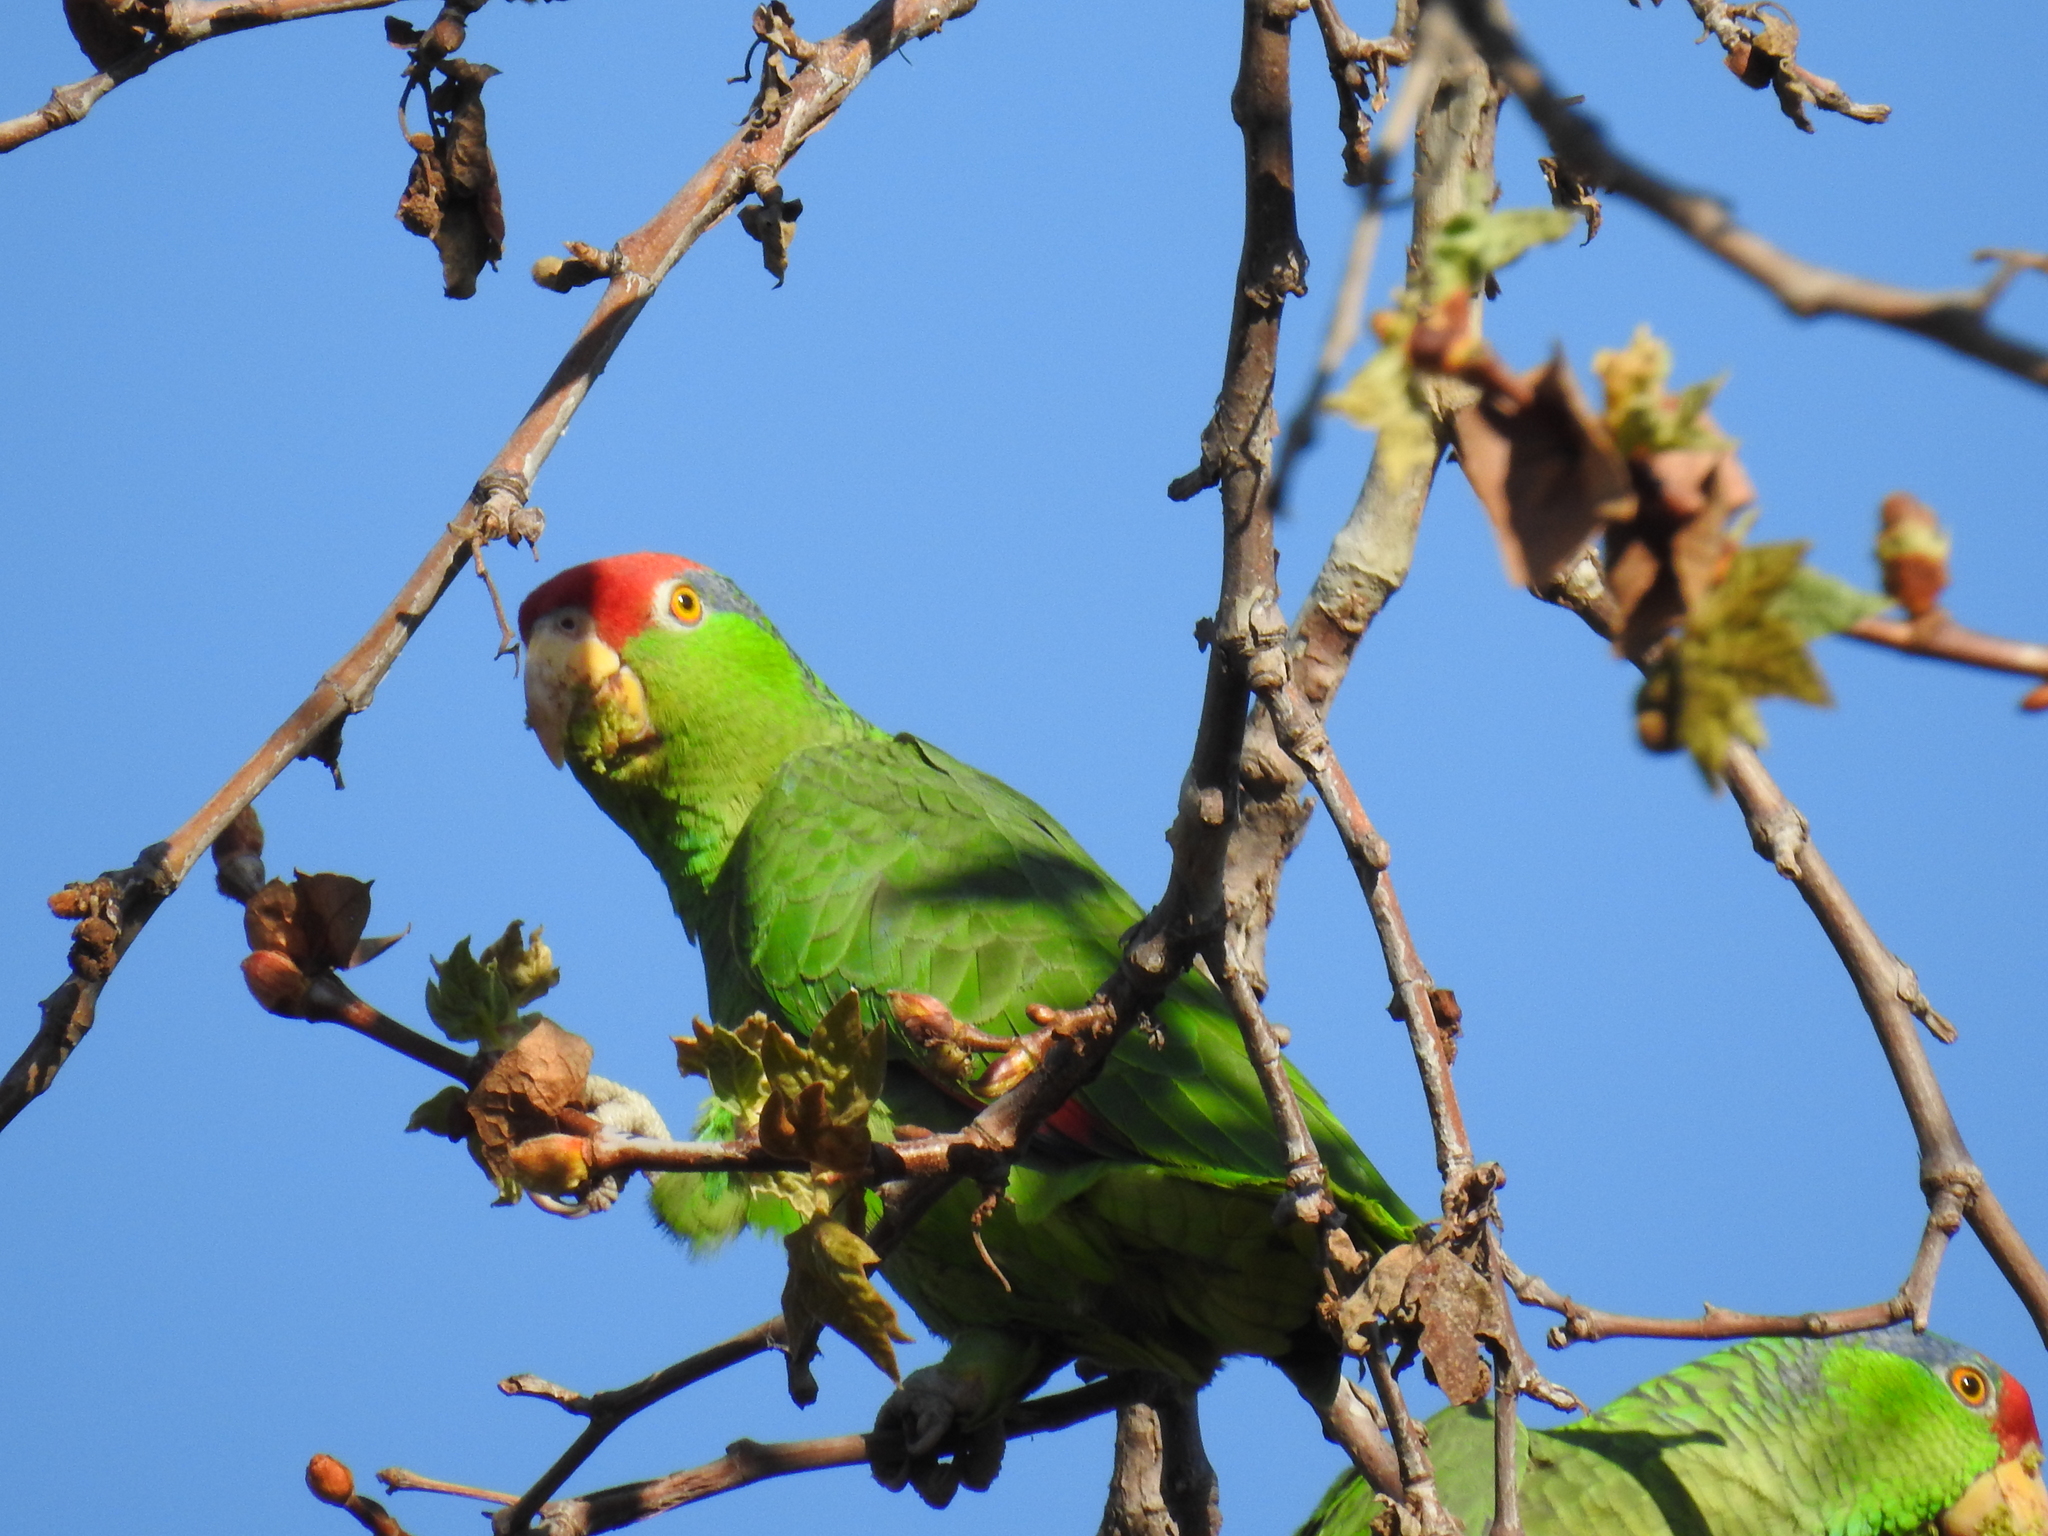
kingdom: Animalia
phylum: Chordata
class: Aves
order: Psittaciformes
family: Psittacidae
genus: Amazona
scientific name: Amazona viridigenalis
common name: Red-crowned amazon
